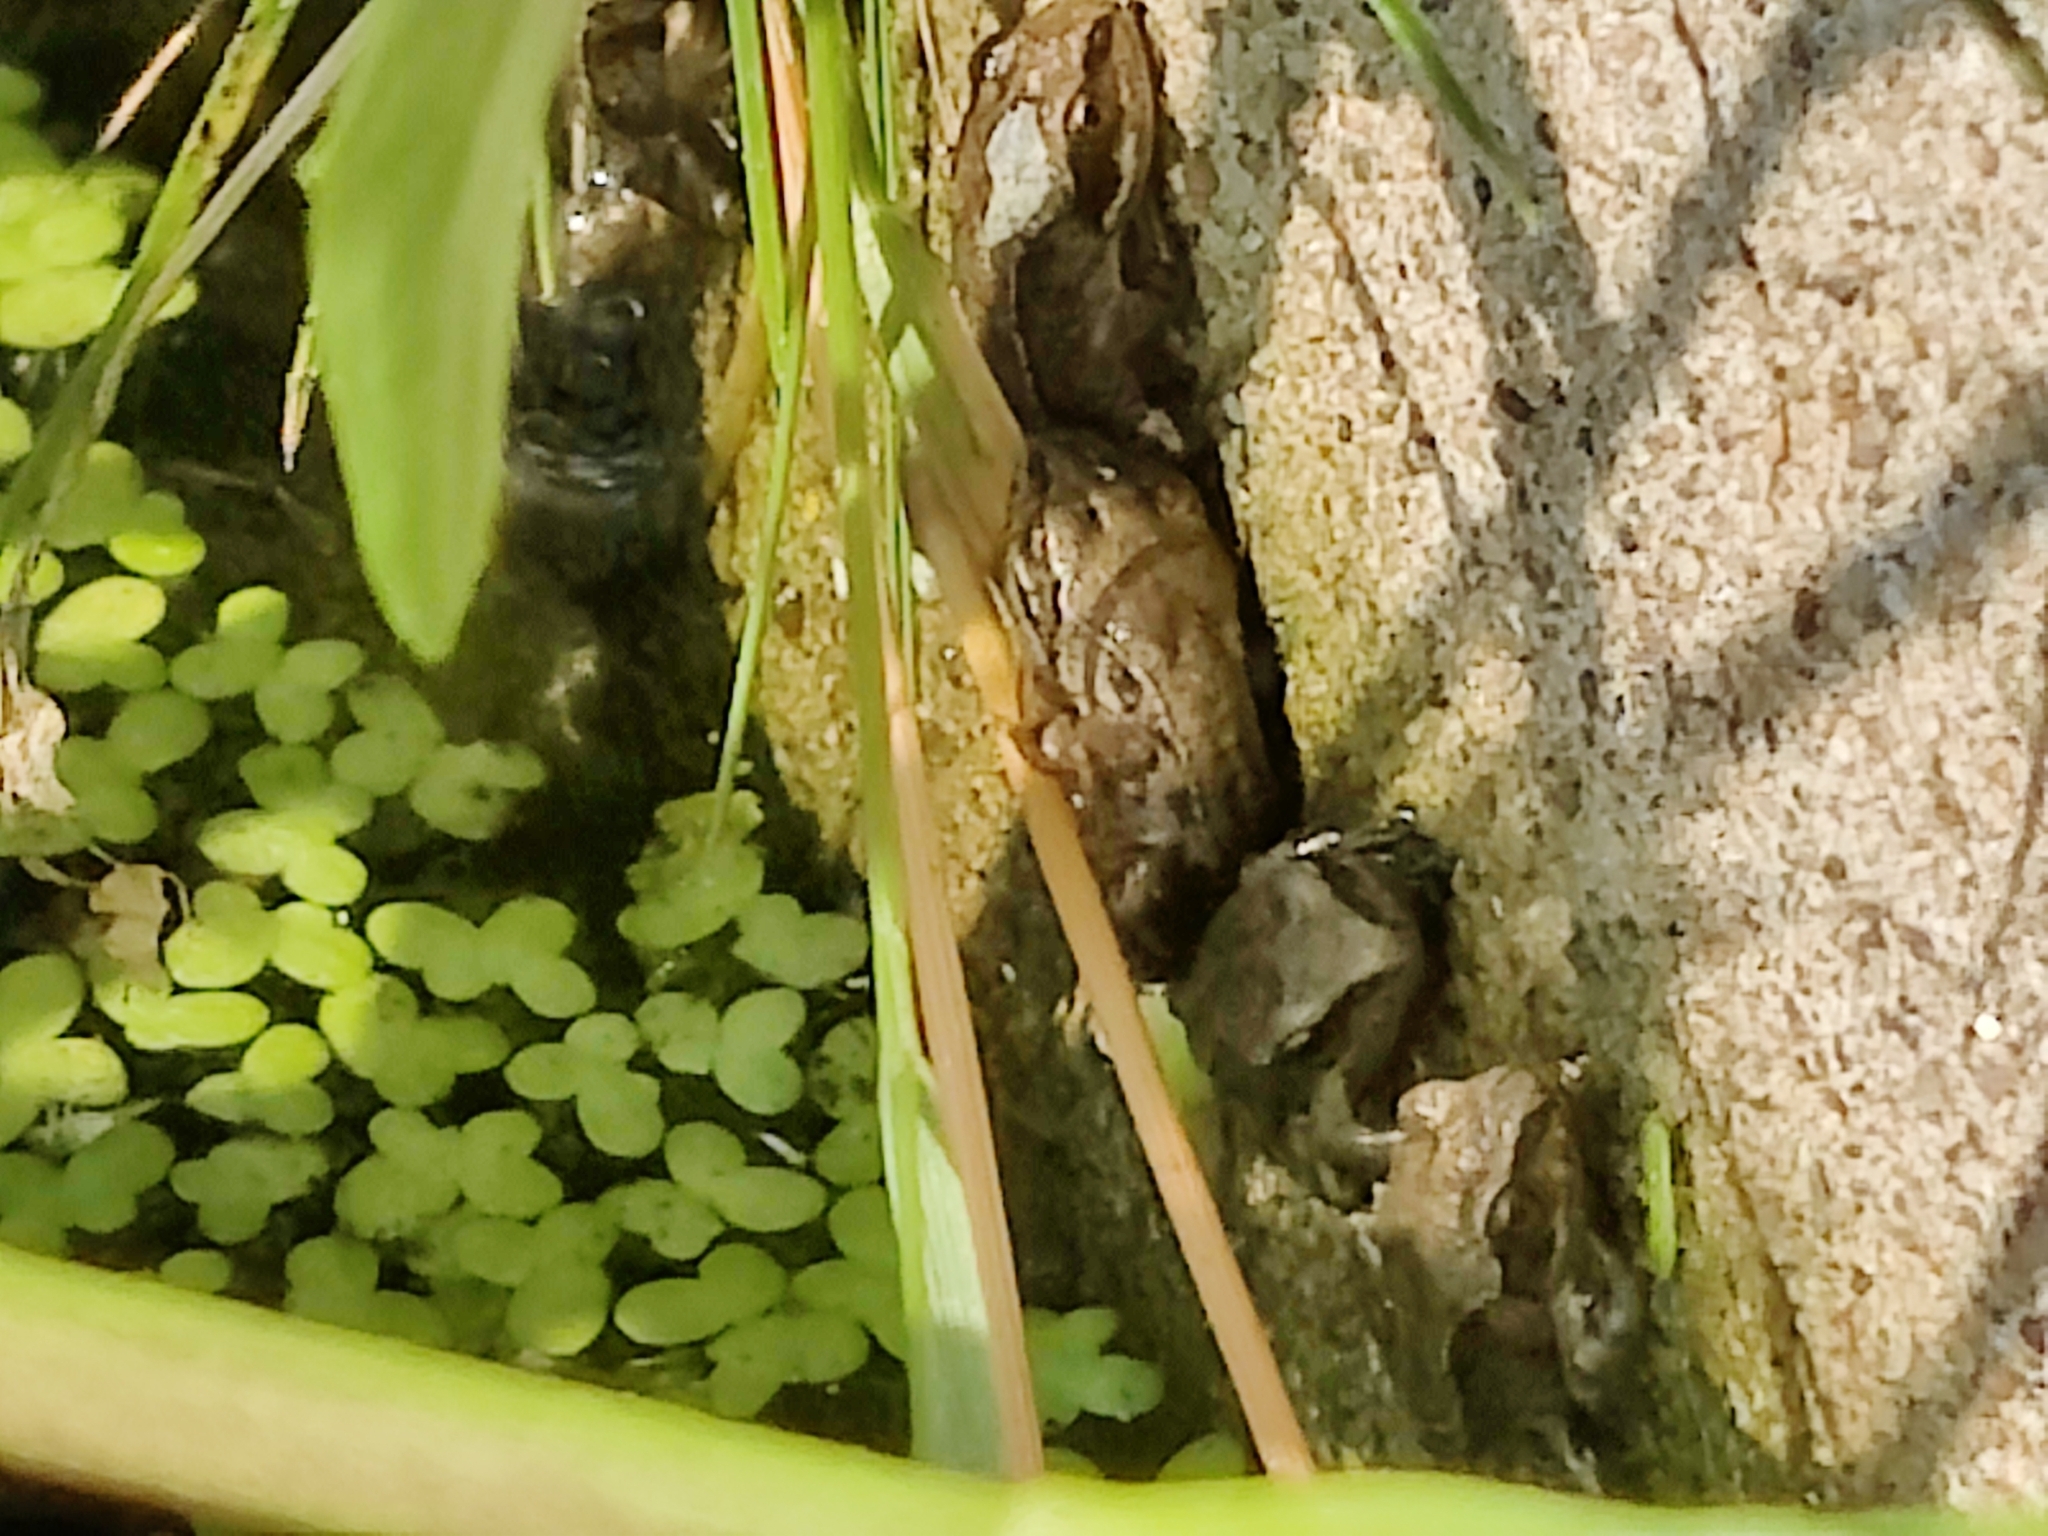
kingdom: Animalia
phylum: Chordata
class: Amphibia
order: Anura
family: Ranidae
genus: Rana
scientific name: Rana temporaria
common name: Common frog
